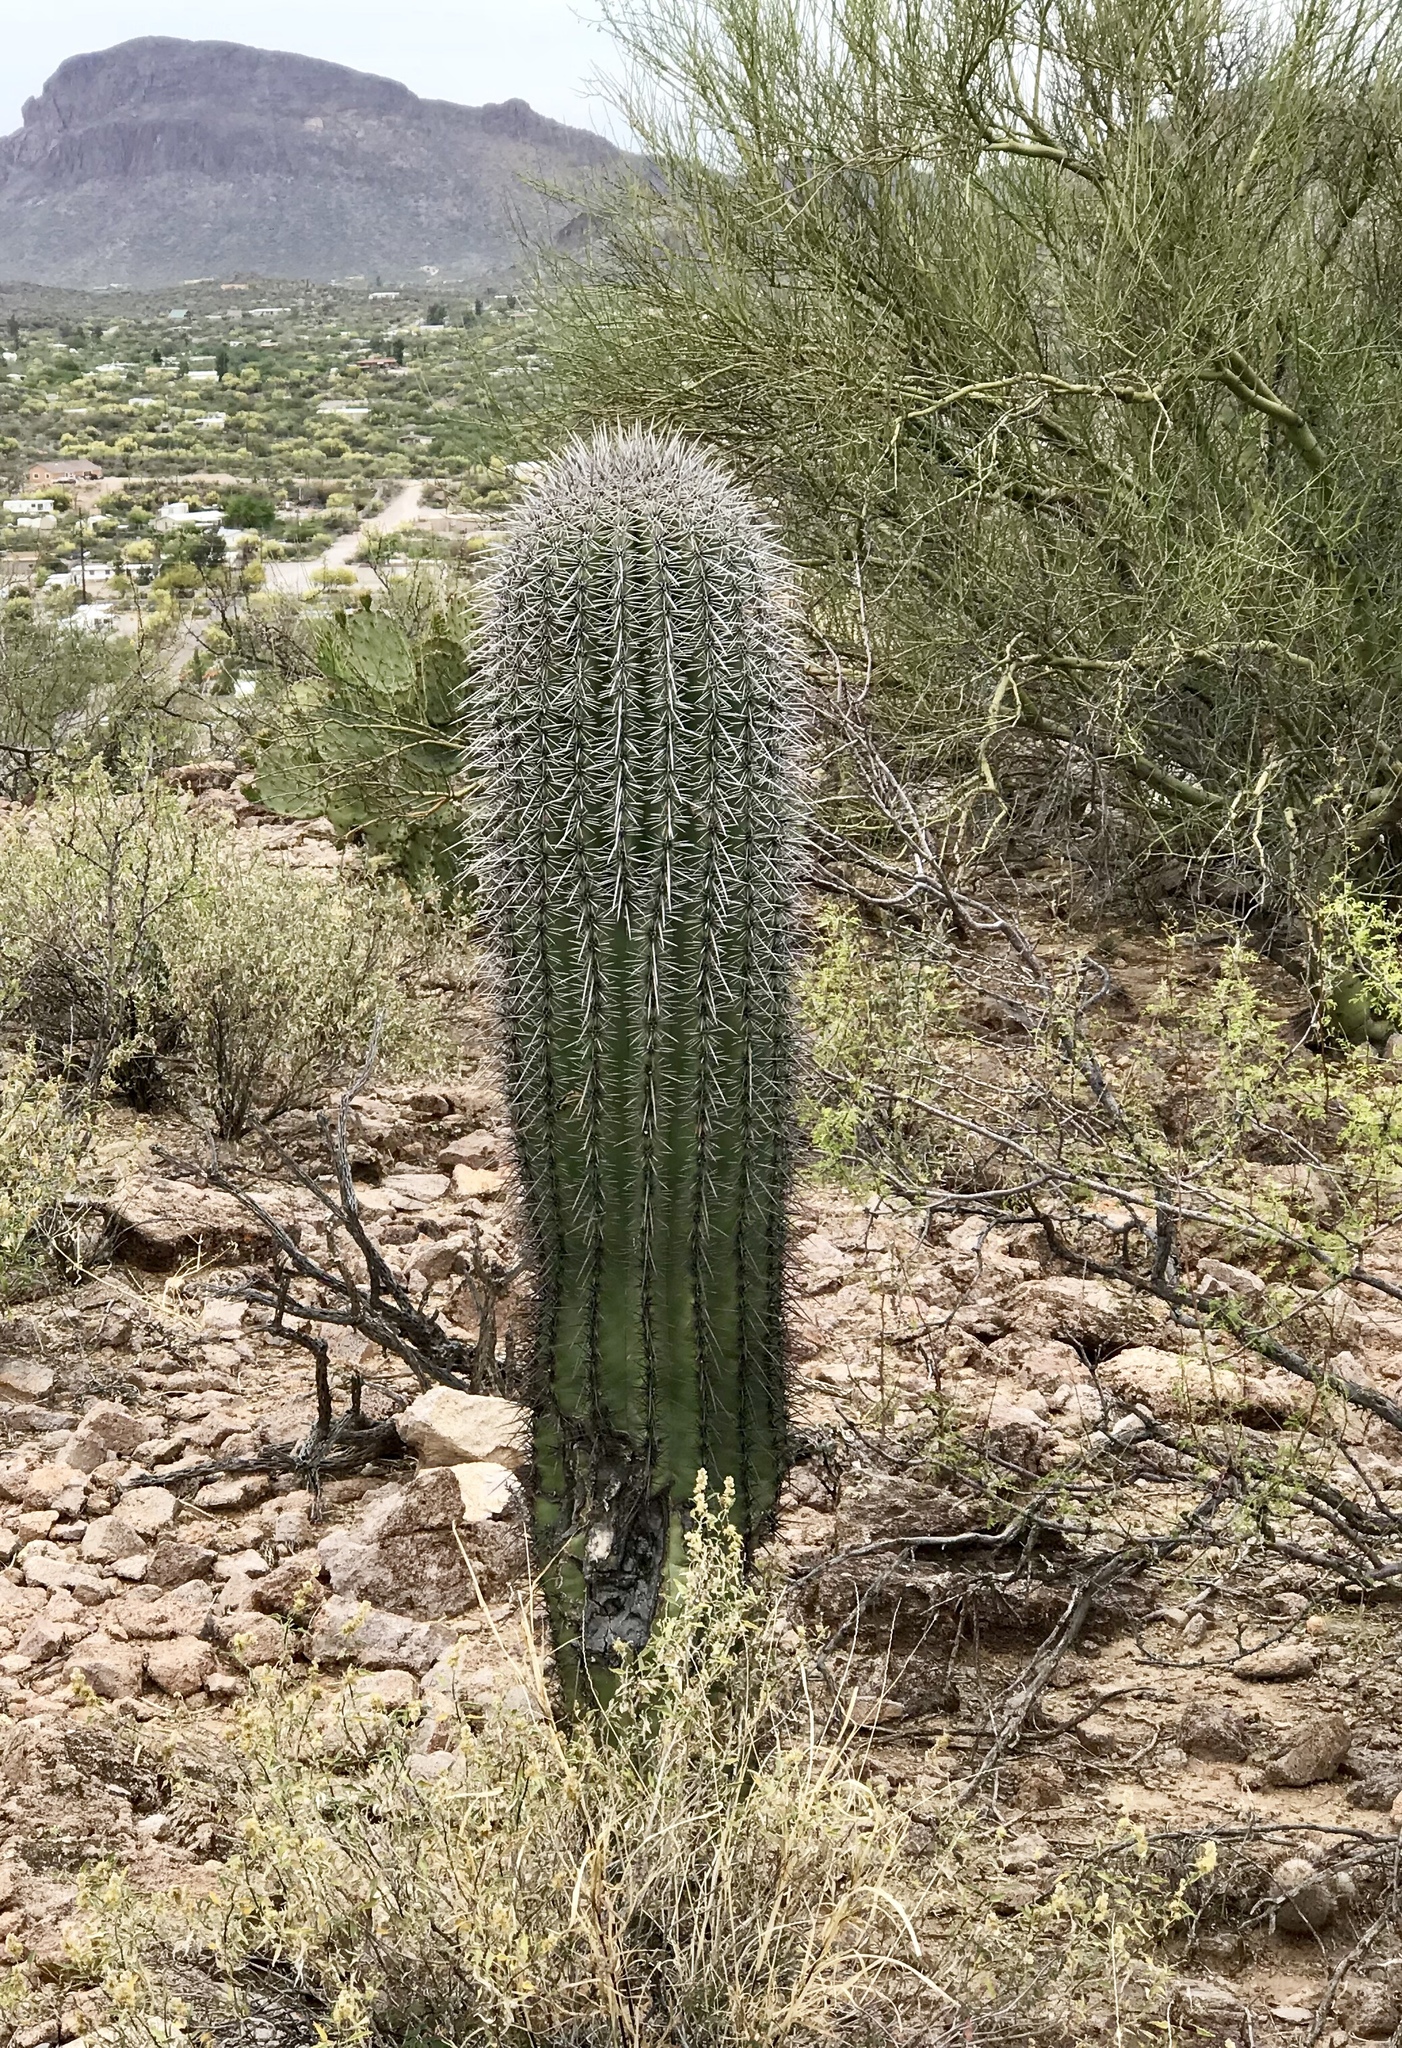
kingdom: Plantae
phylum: Tracheophyta
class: Magnoliopsida
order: Caryophyllales
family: Cactaceae
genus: Carnegiea
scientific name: Carnegiea gigantea
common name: Saguaro
